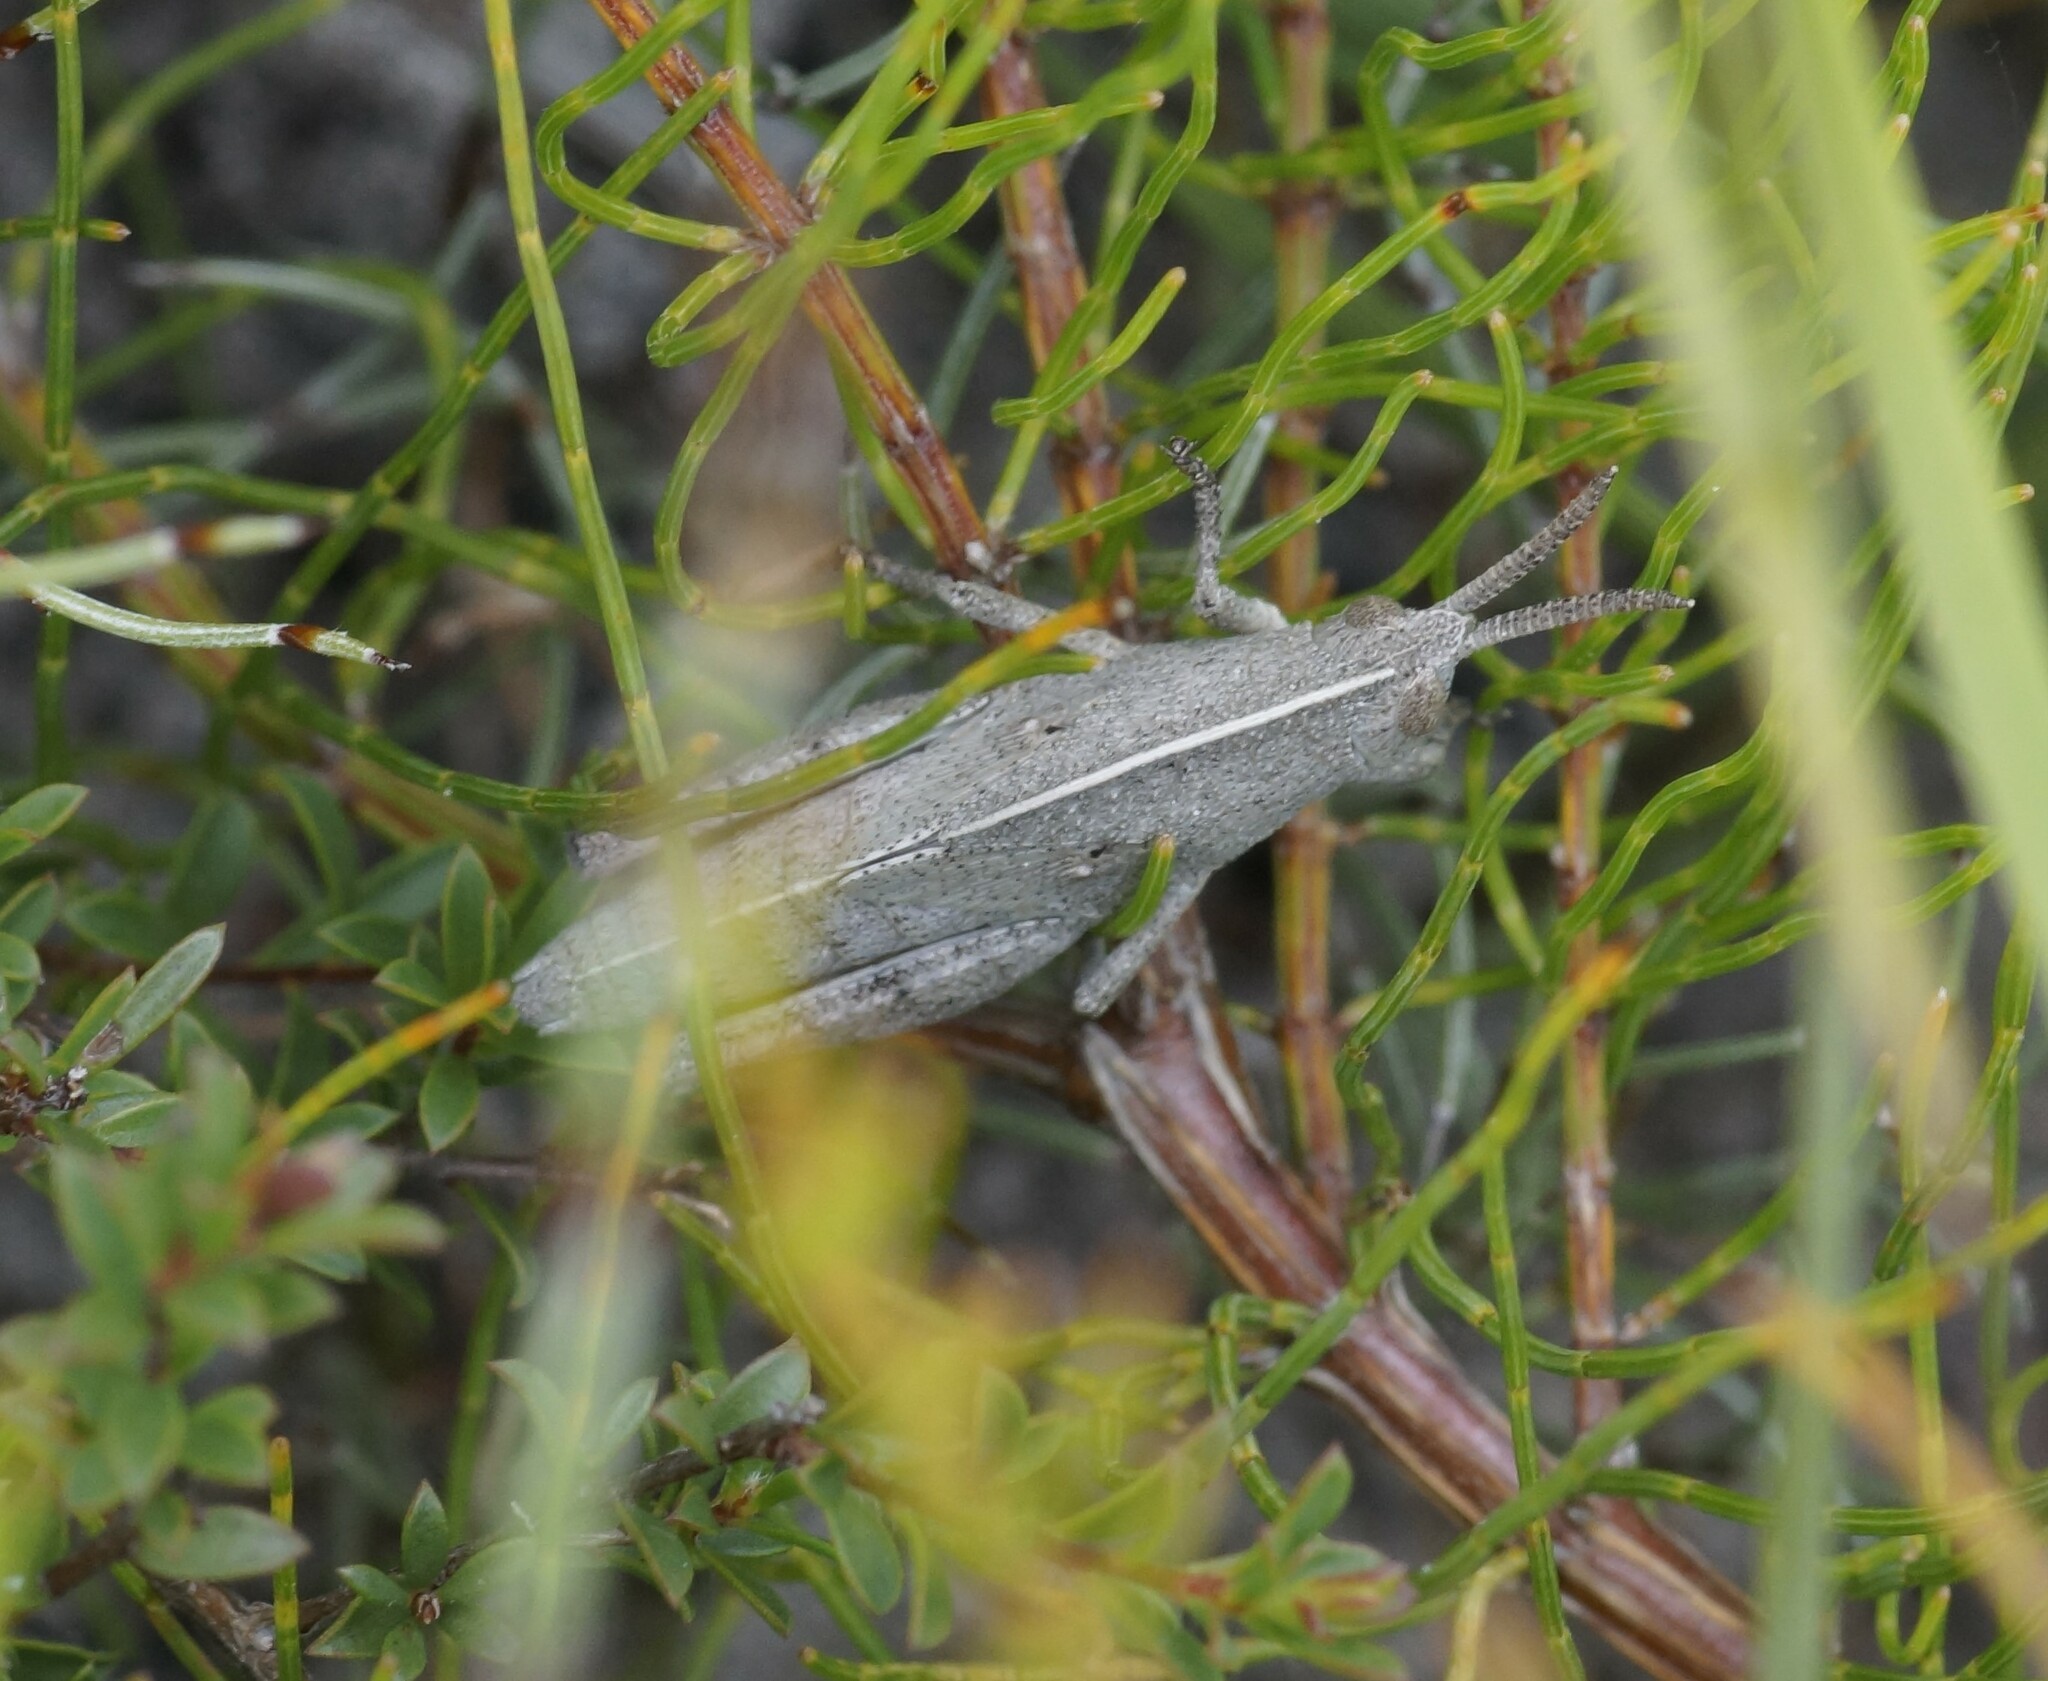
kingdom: Animalia
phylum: Arthropoda
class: Insecta
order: Orthoptera
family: Acrididae
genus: Goniaea
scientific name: Goniaea australasiae
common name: Gumleaf grasshopper
